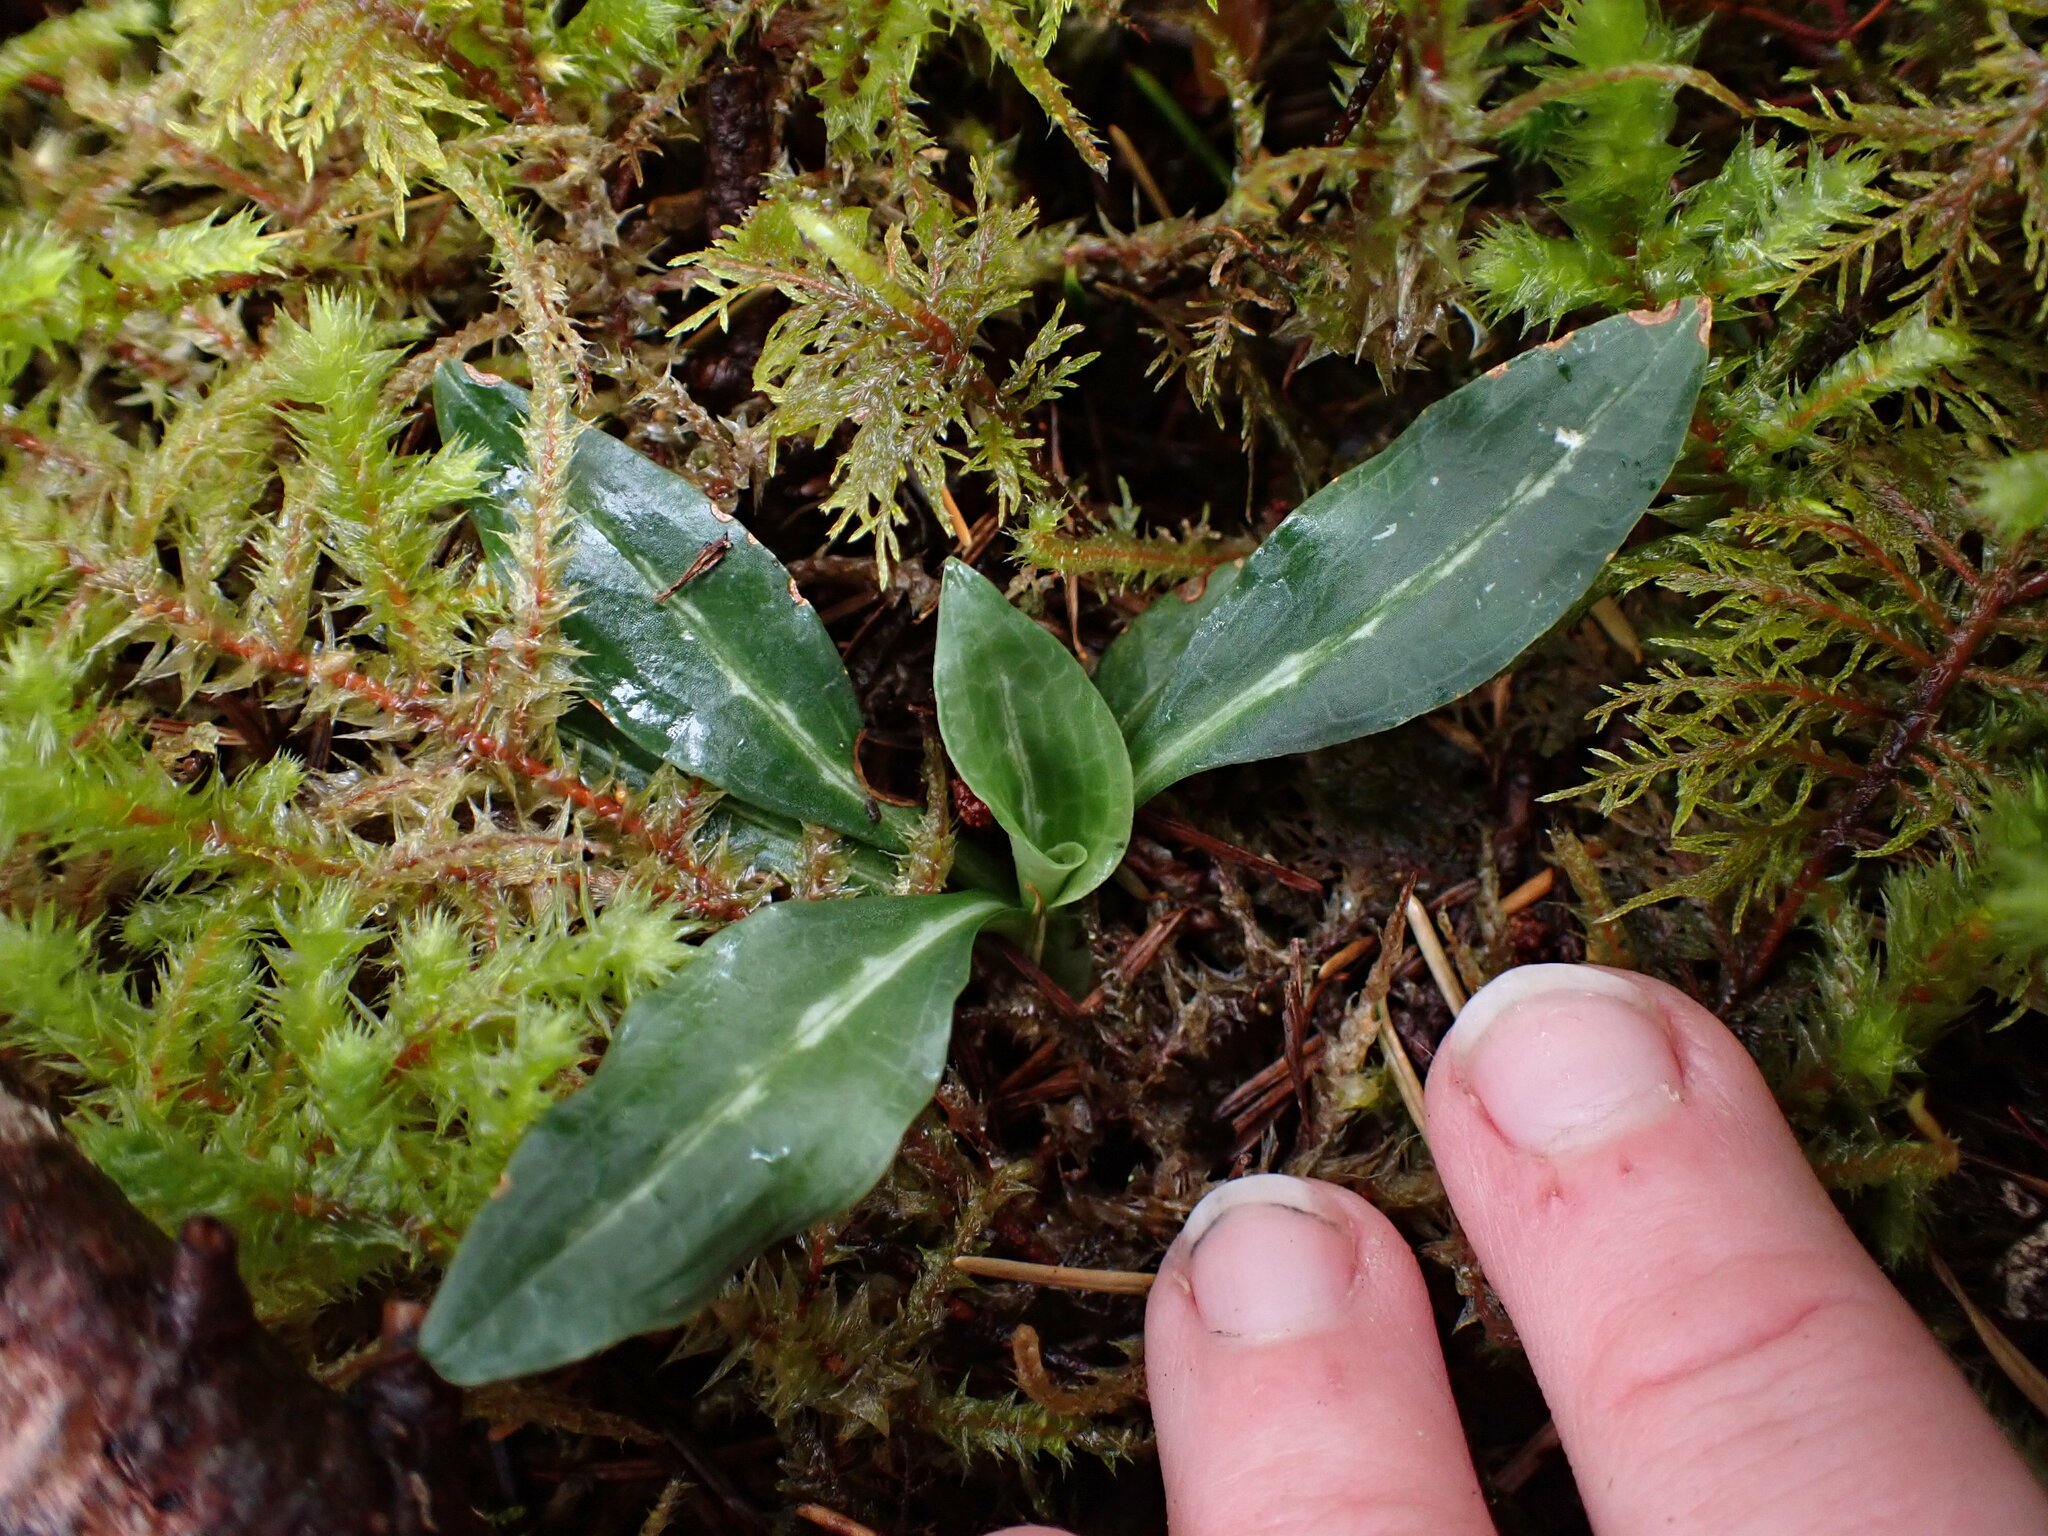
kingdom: Plantae
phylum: Tracheophyta
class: Liliopsida
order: Asparagales
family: Orchidaceae
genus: Goodyera
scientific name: Goodyera oblongifolia
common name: Giant rattlesnake-plantain
